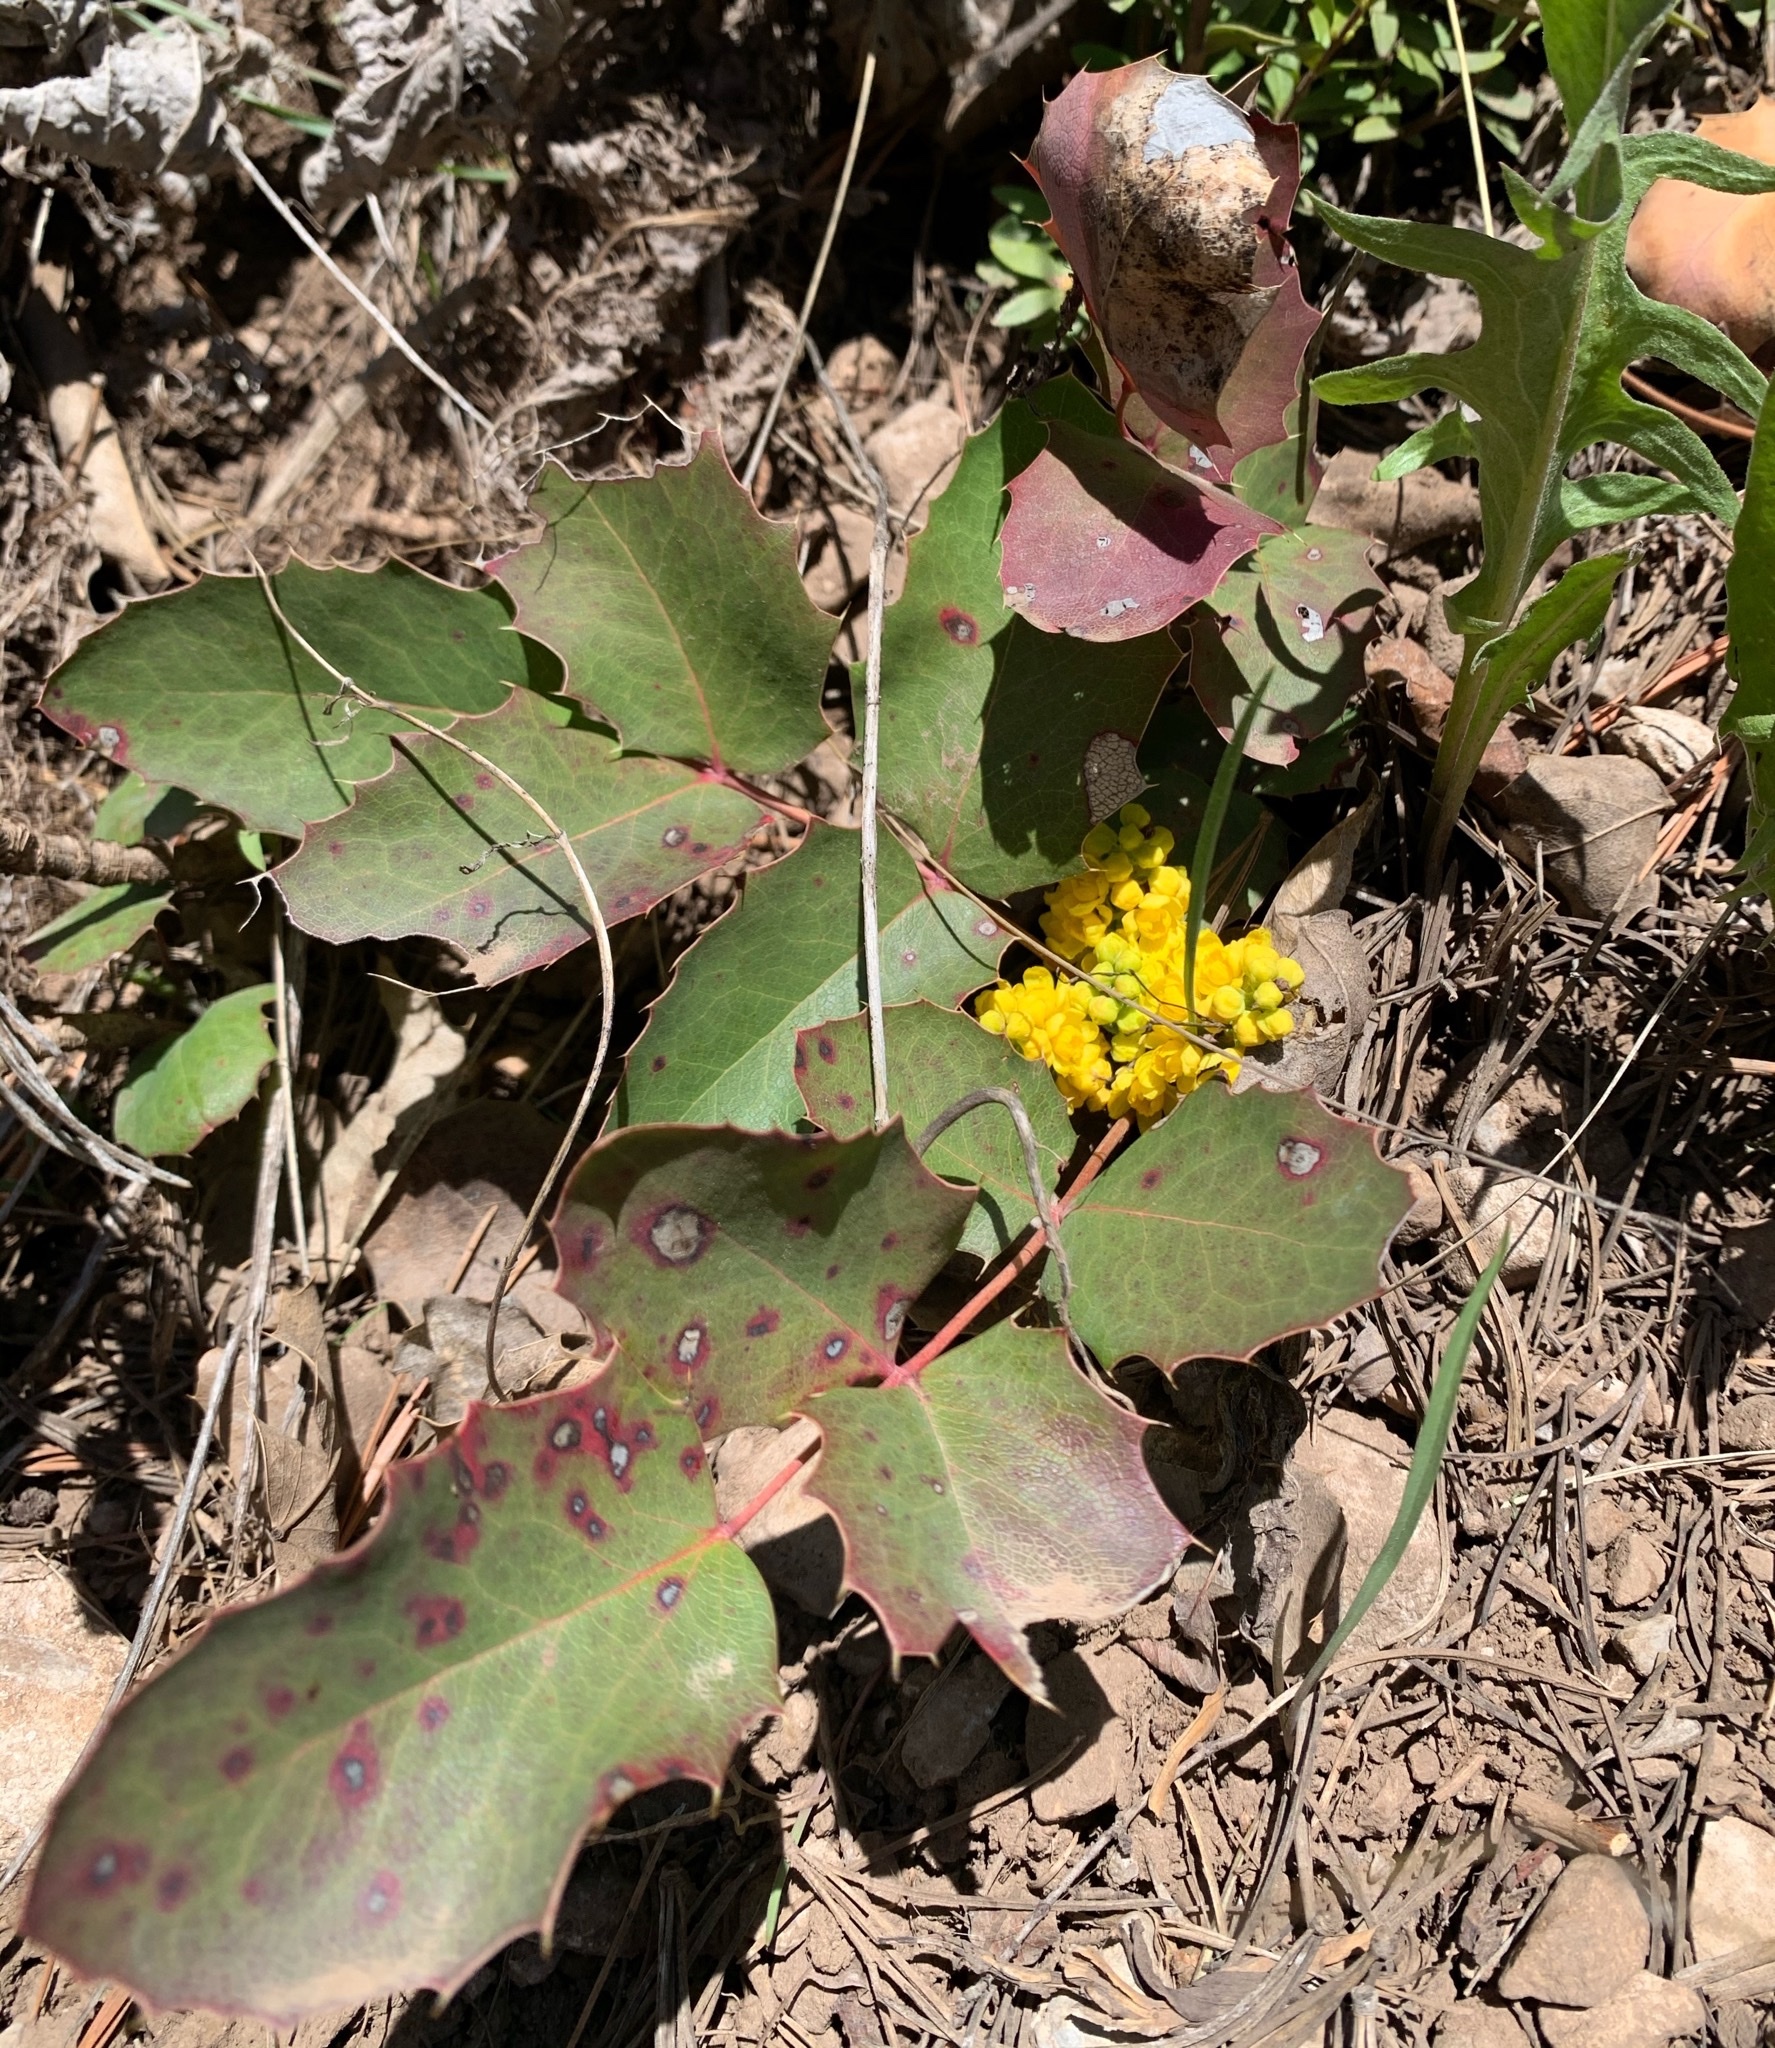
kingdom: Plantae
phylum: Tracheophyta
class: Magnoliopsida
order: Ranunculales
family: Berberidaceae
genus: Mahonia
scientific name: Mahonia repens
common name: Creeping oregon-grape
